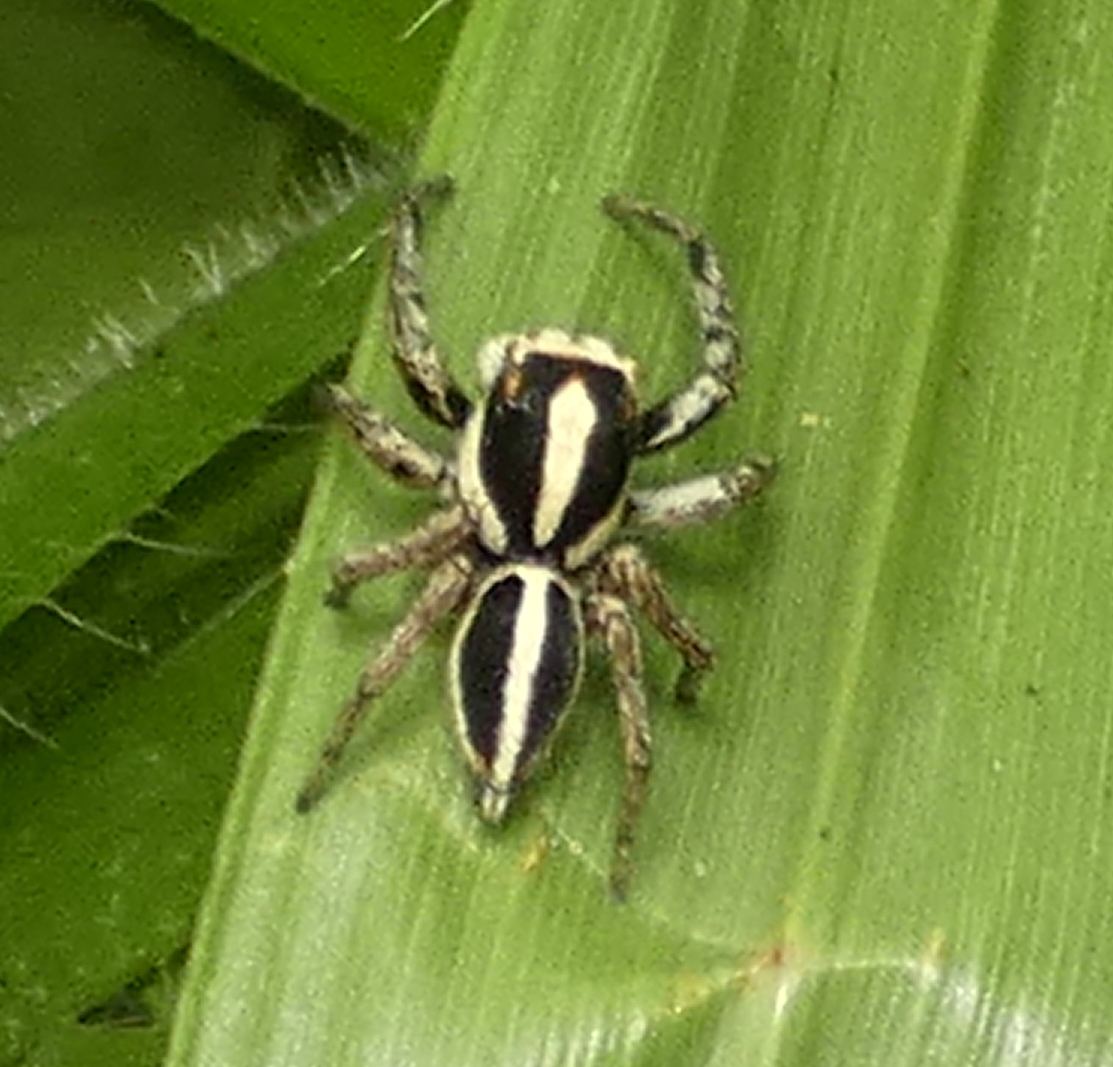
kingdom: Animalia
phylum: Arthropoda
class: Arachnida
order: Araneae
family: Salticidae
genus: Leptofreya
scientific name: Leptofreya ambigua
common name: Jumping spider
